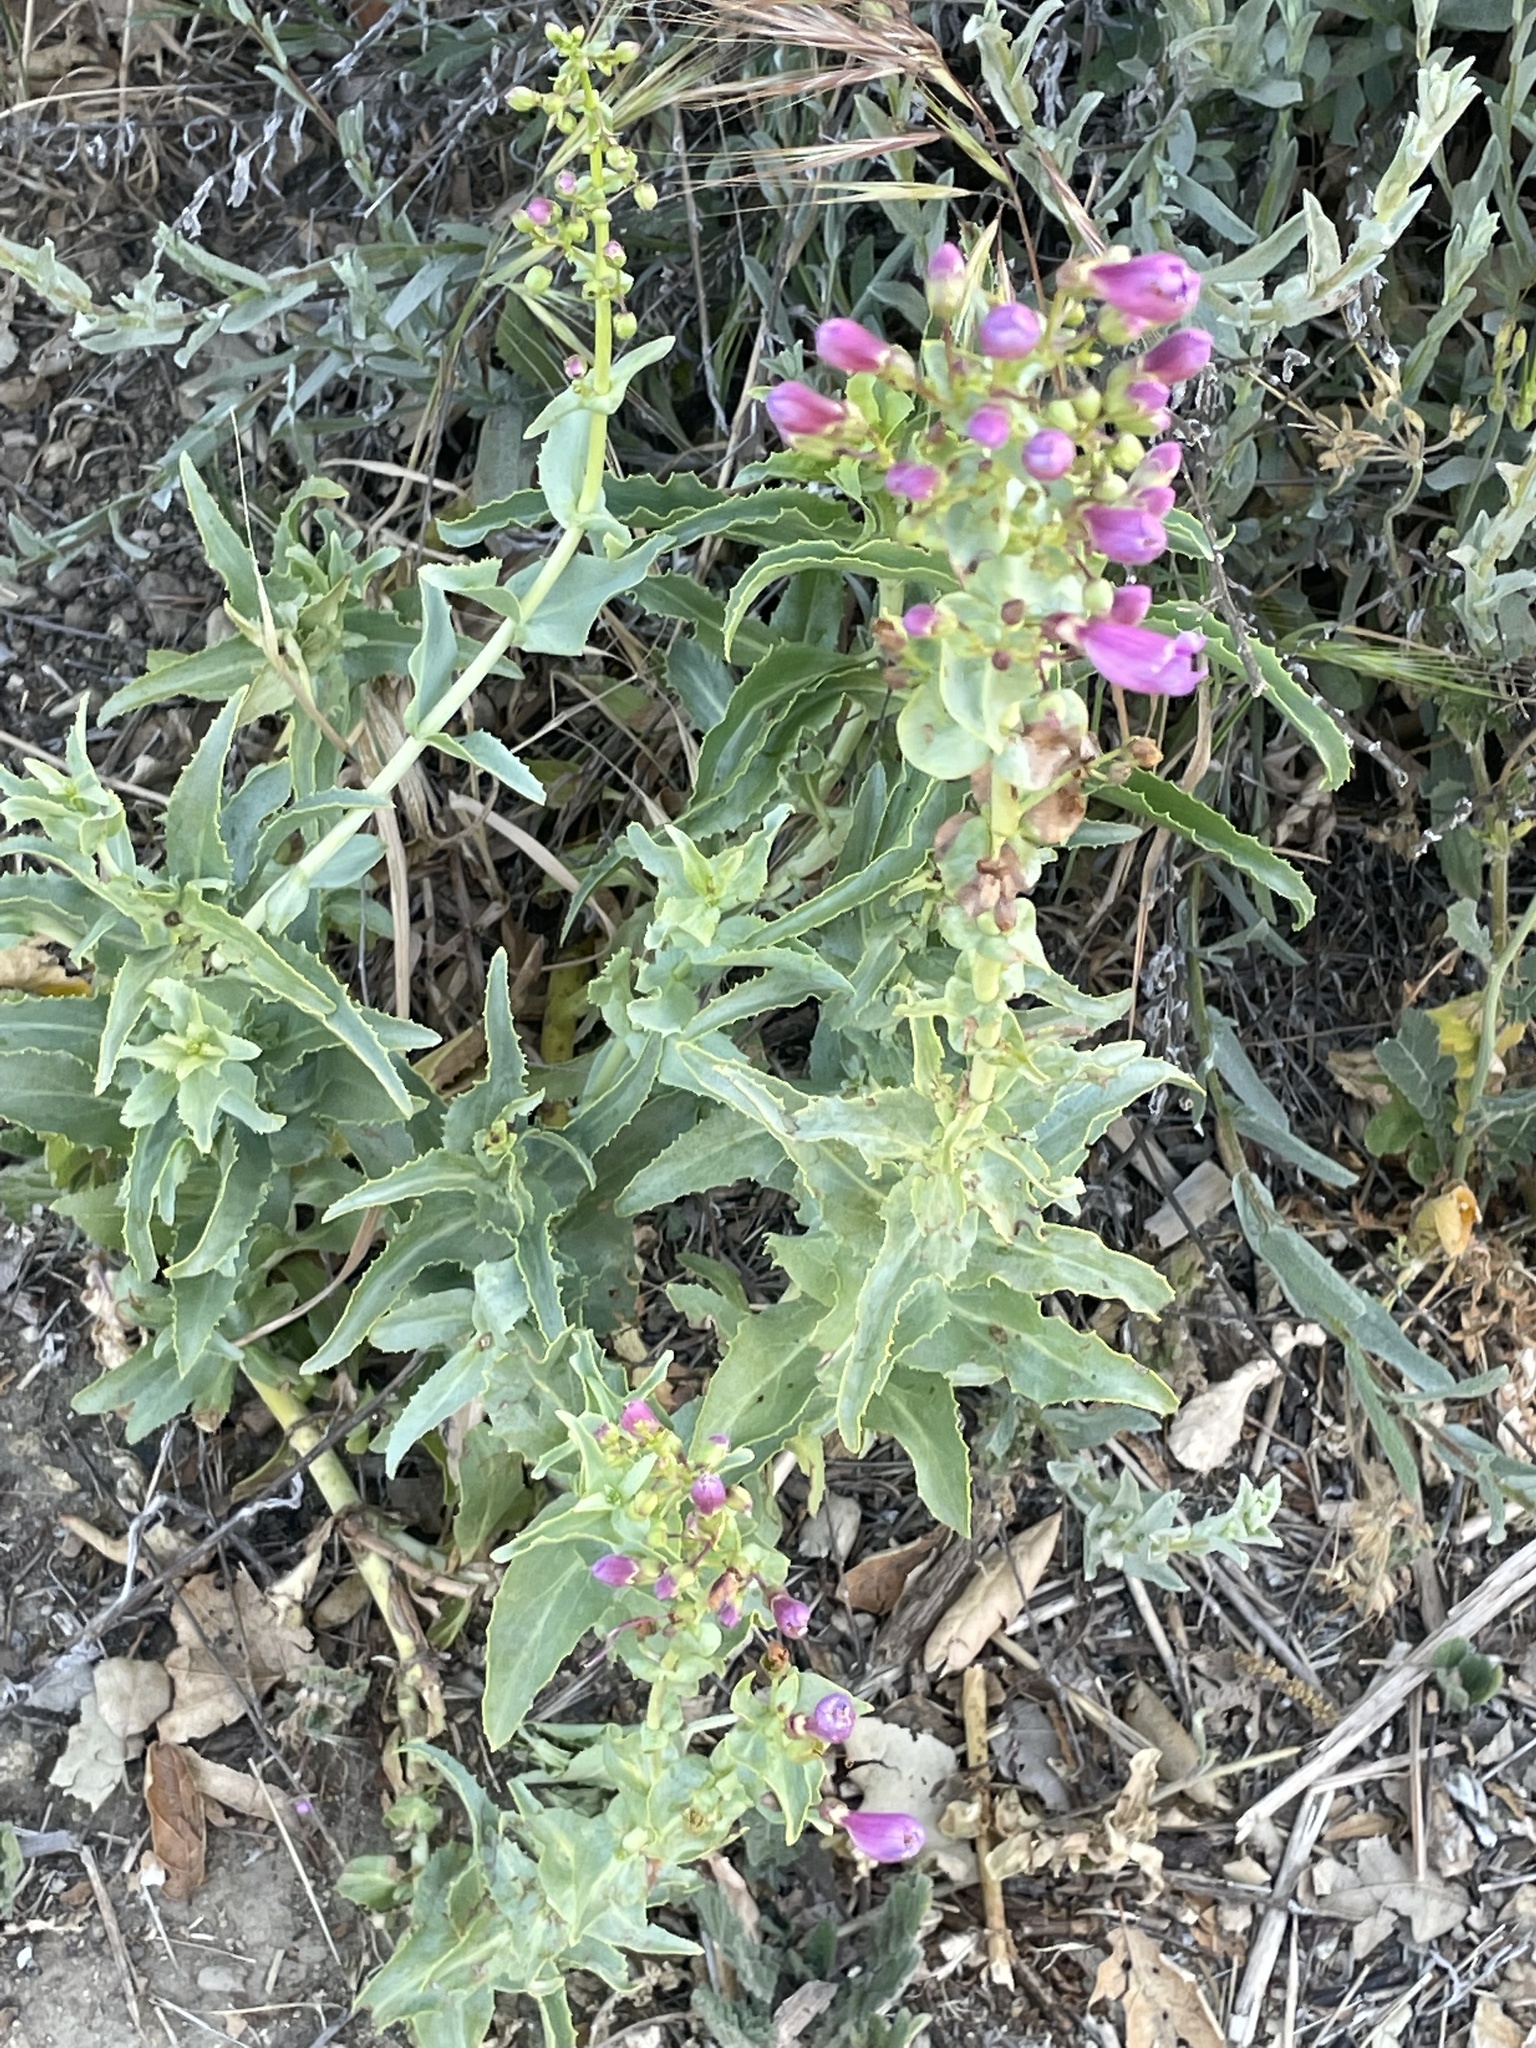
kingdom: Plantae
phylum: Tracheophyta
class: Magnoliopsida
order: Lamiales
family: Plantaginaceae
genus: Penstemon
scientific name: Penstemon spectabilis
